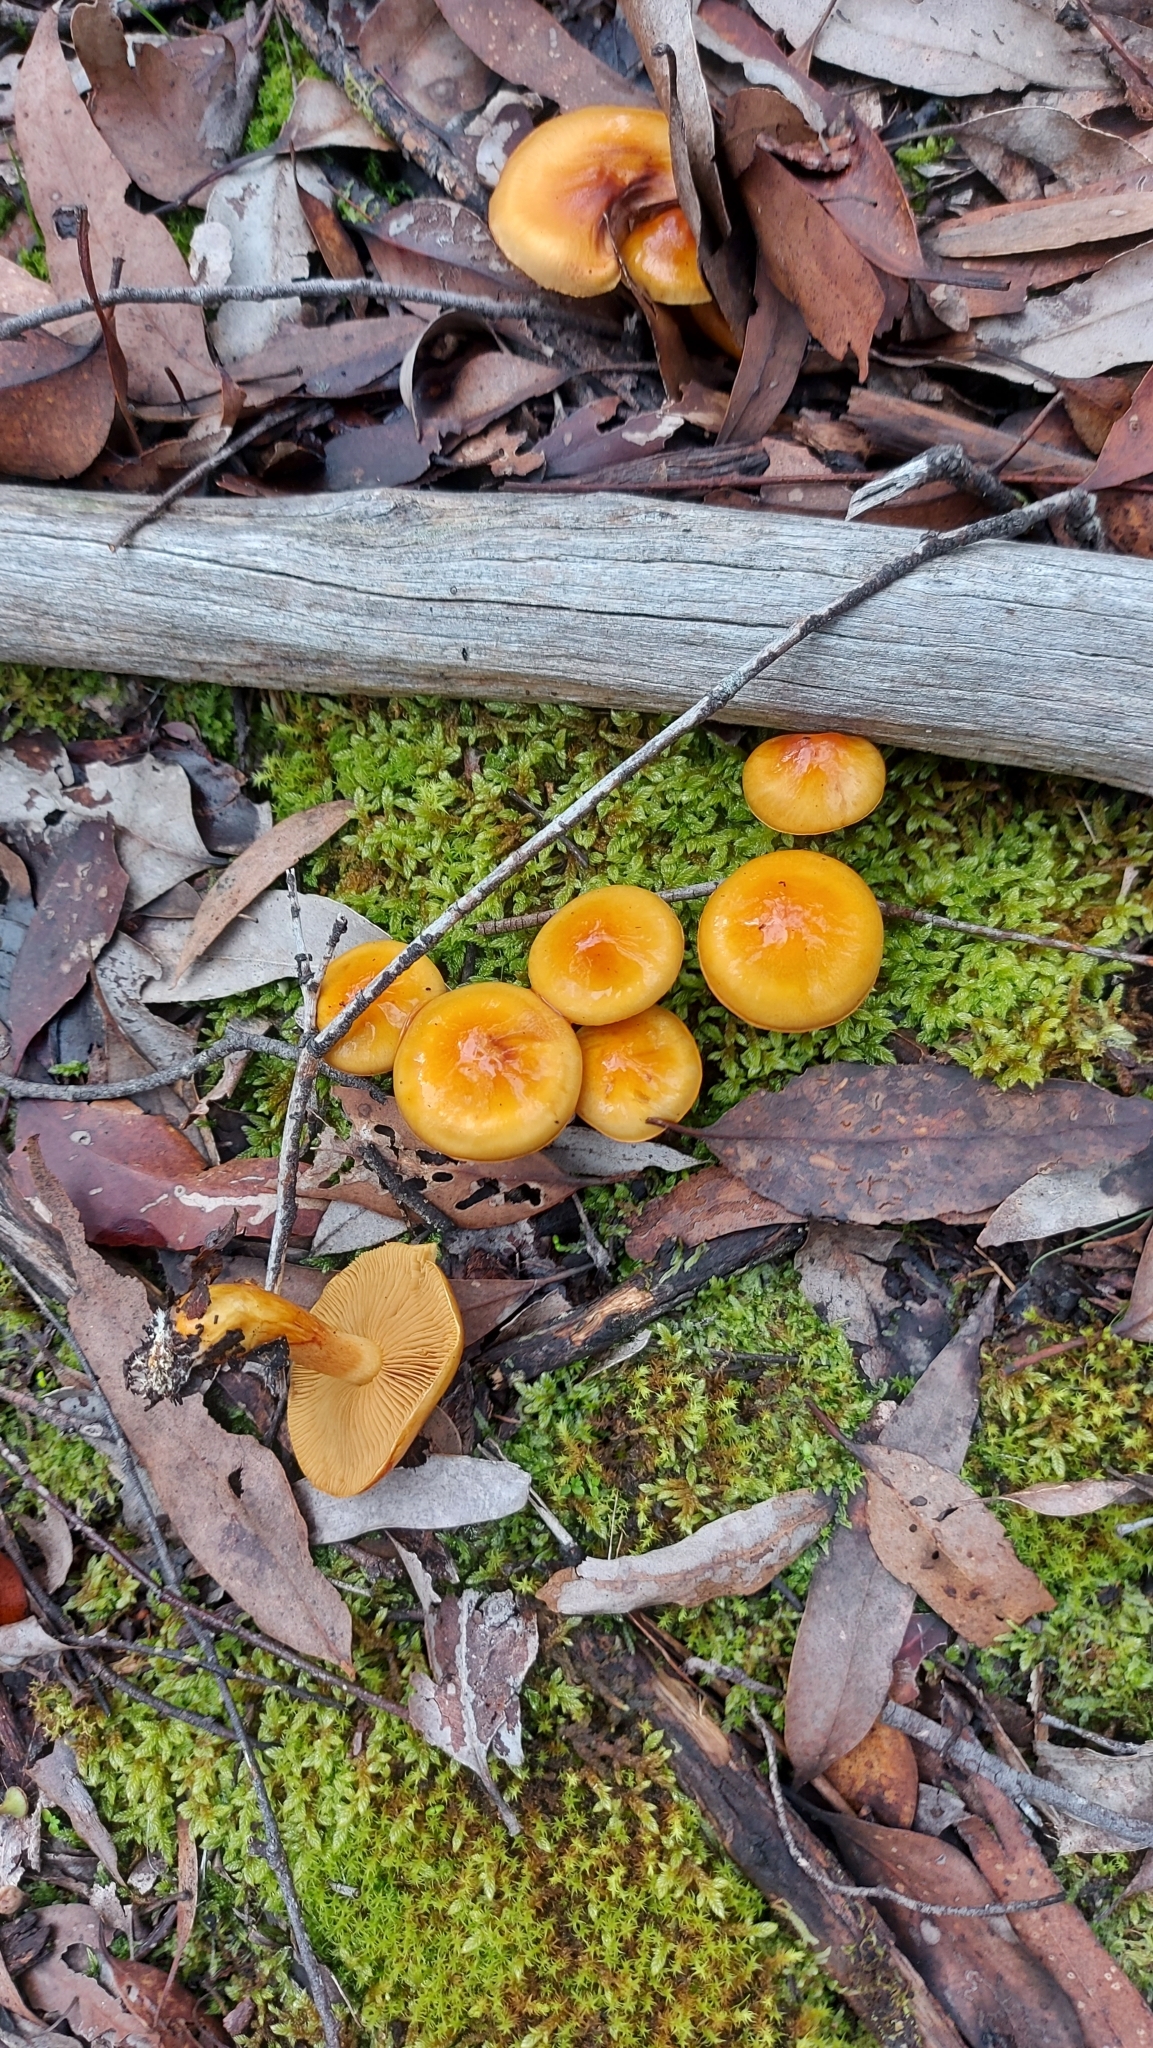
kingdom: Fungi
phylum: Basidiomycota
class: Agaricomycetes
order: Agaricales
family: Cortinariaceae
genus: Cortinarius
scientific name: Cortinarius sinapicolor
